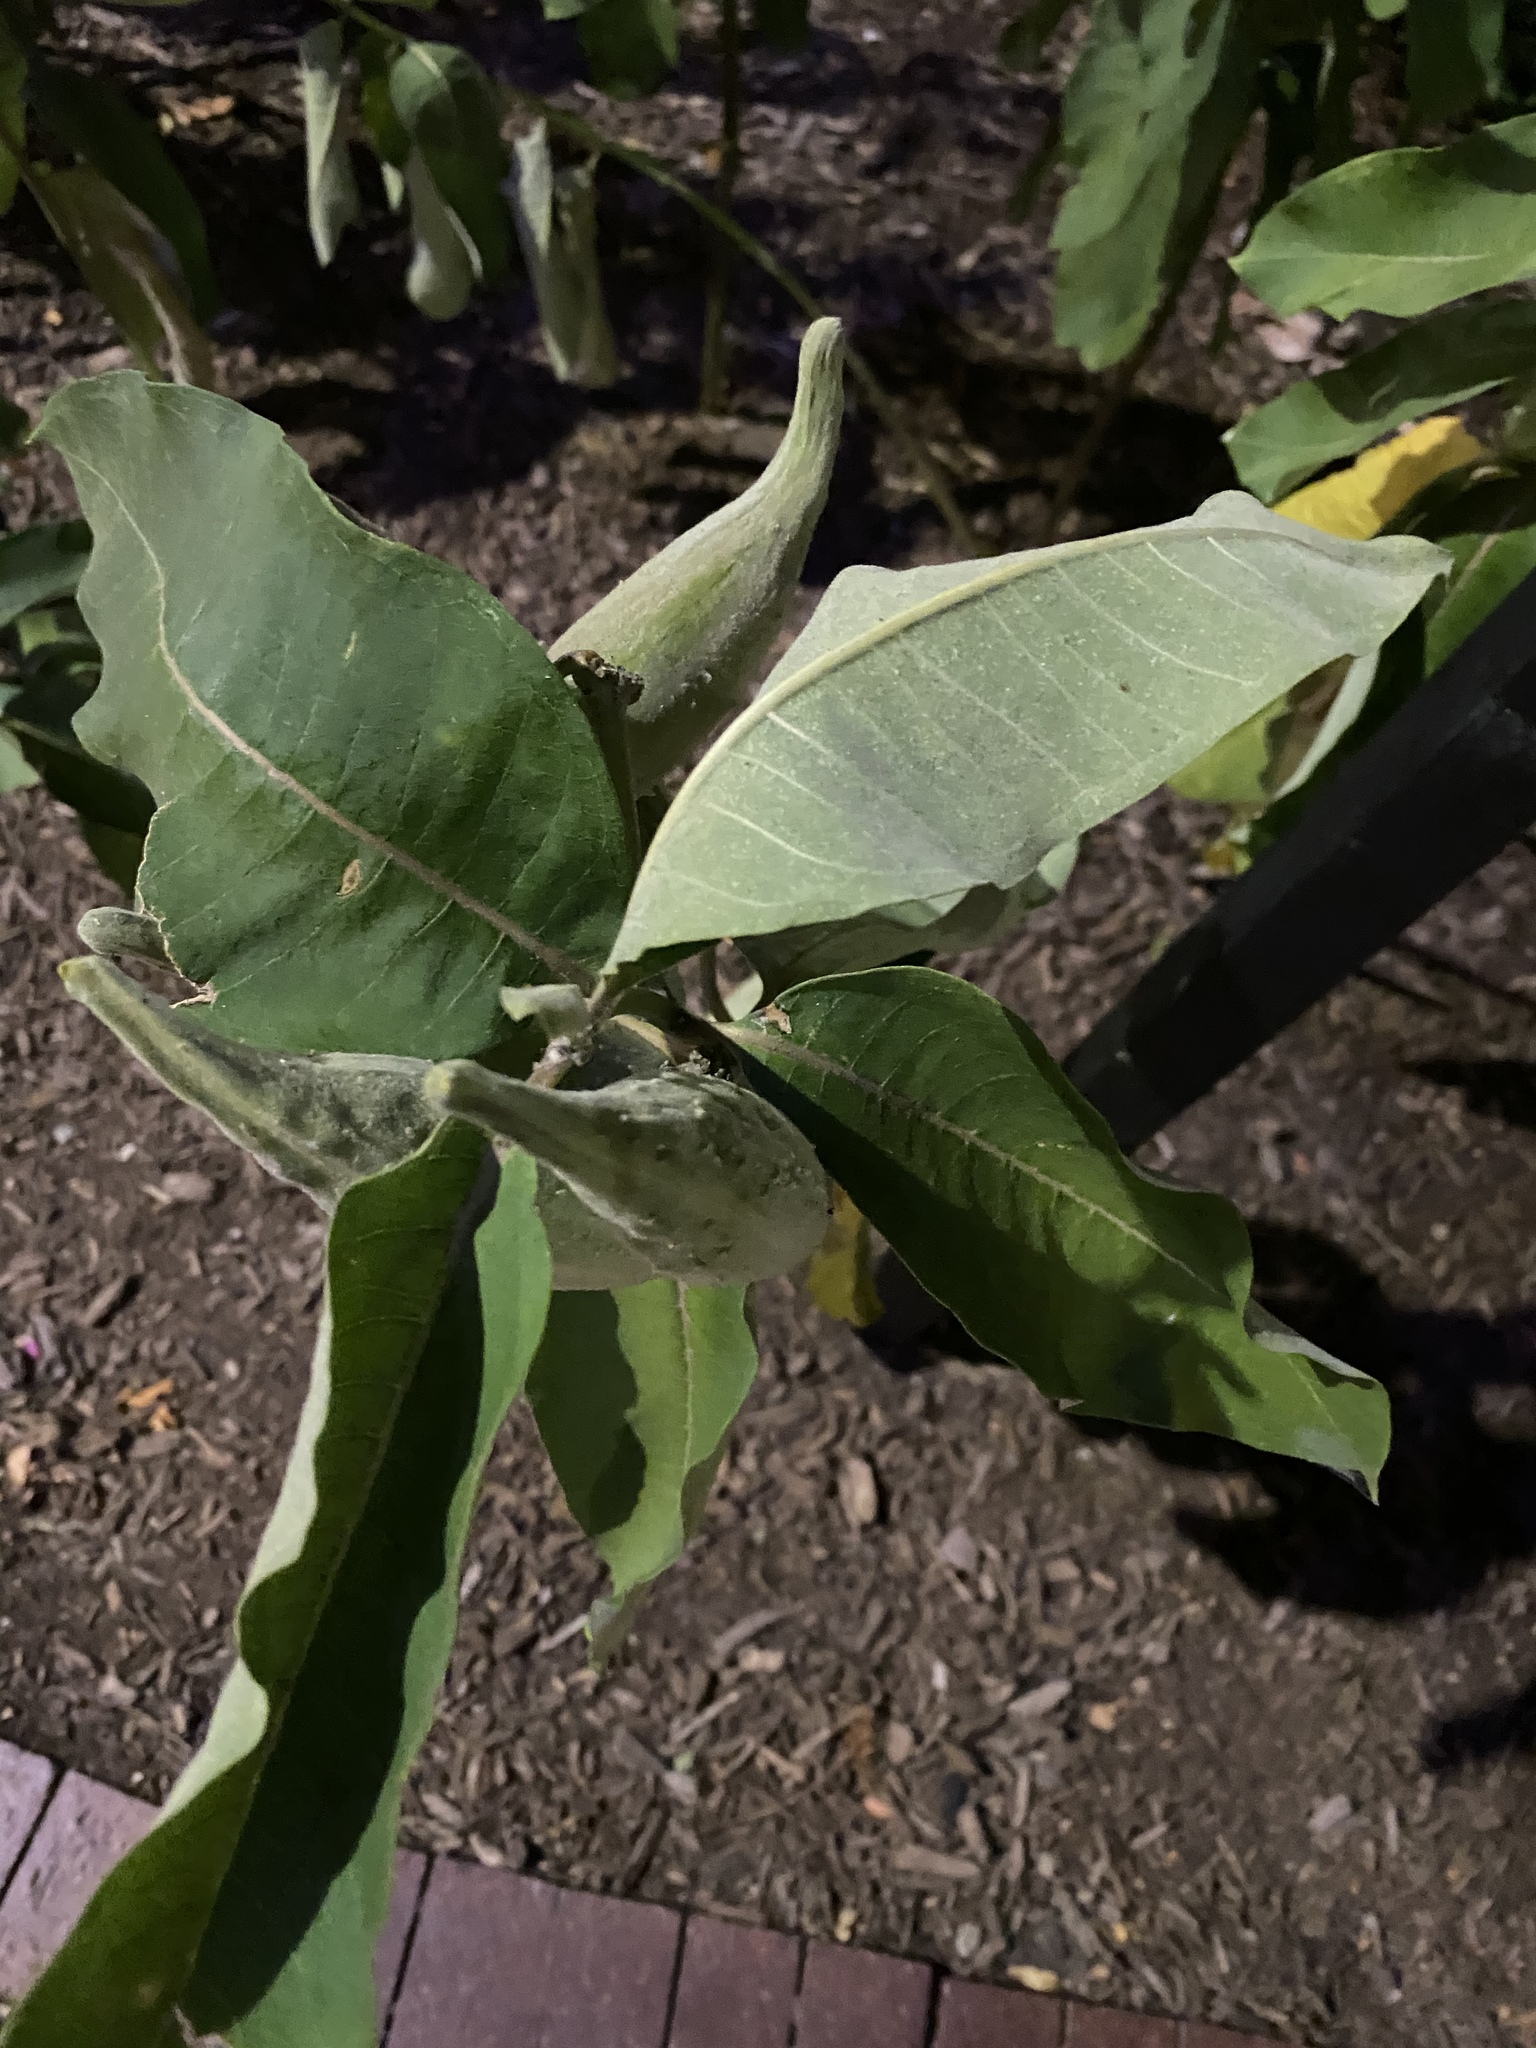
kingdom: Plantae
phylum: Tracheophyta
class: Magnoliopsida
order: Gentianales
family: Apocynaceae
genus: Asclepias
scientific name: Asclepias syriaca
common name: Common milkweed
